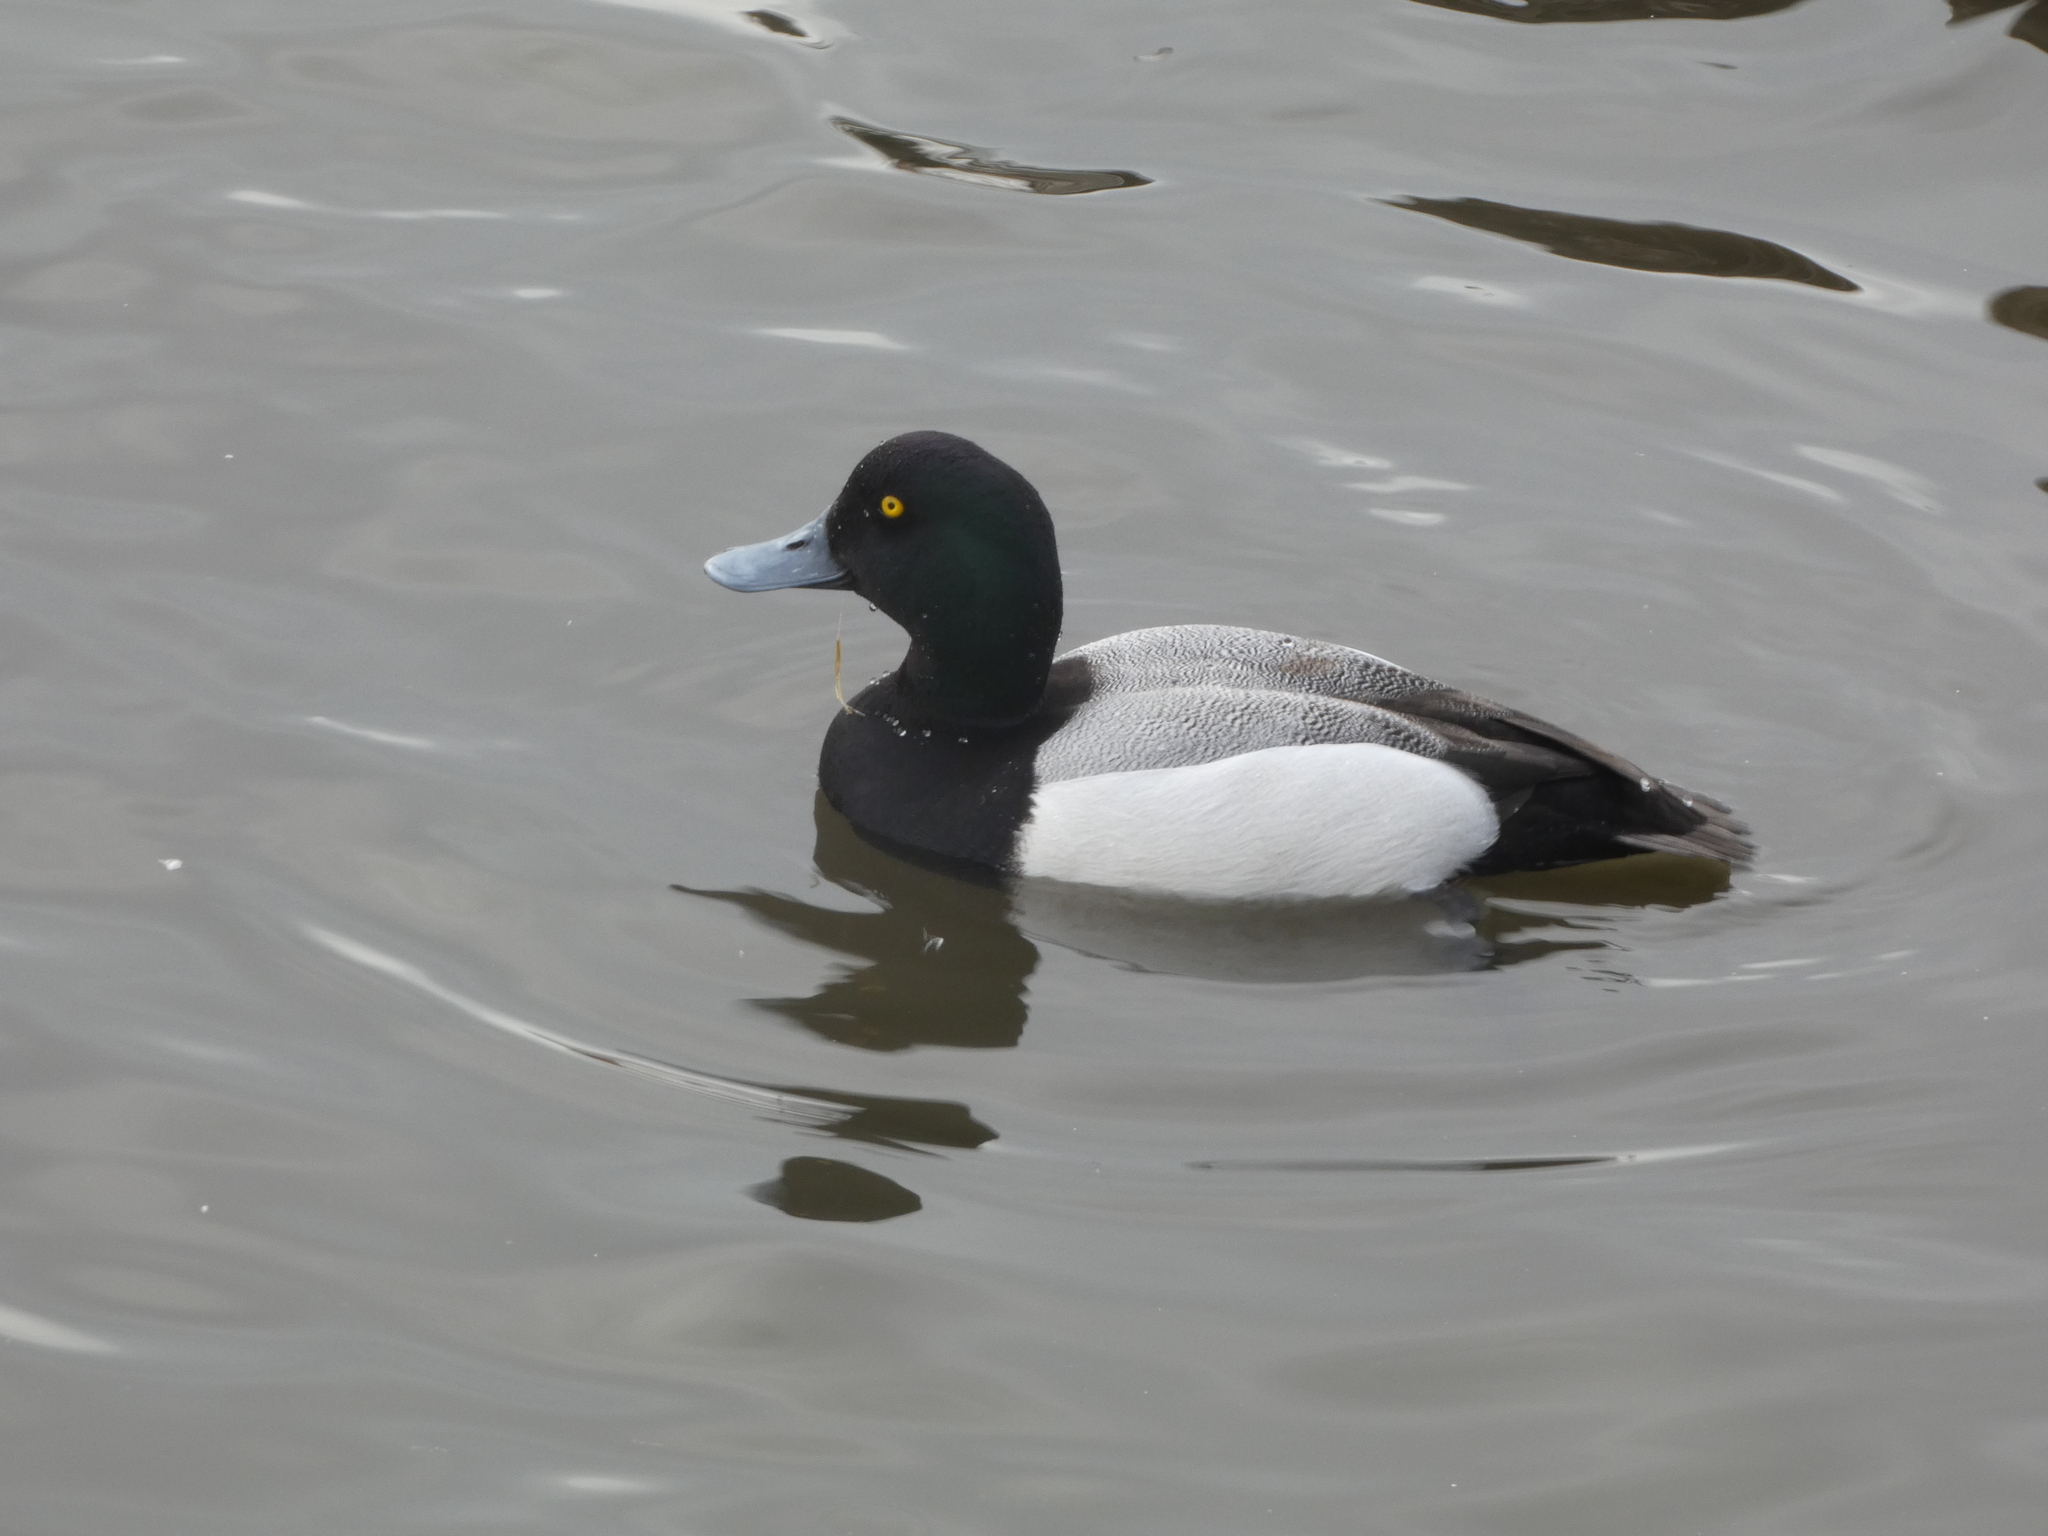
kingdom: Animalia
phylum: Chordata
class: Aves
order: Anseriformes
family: Anatidae
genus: Aythya
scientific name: Aythya marila
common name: Greater scaup
